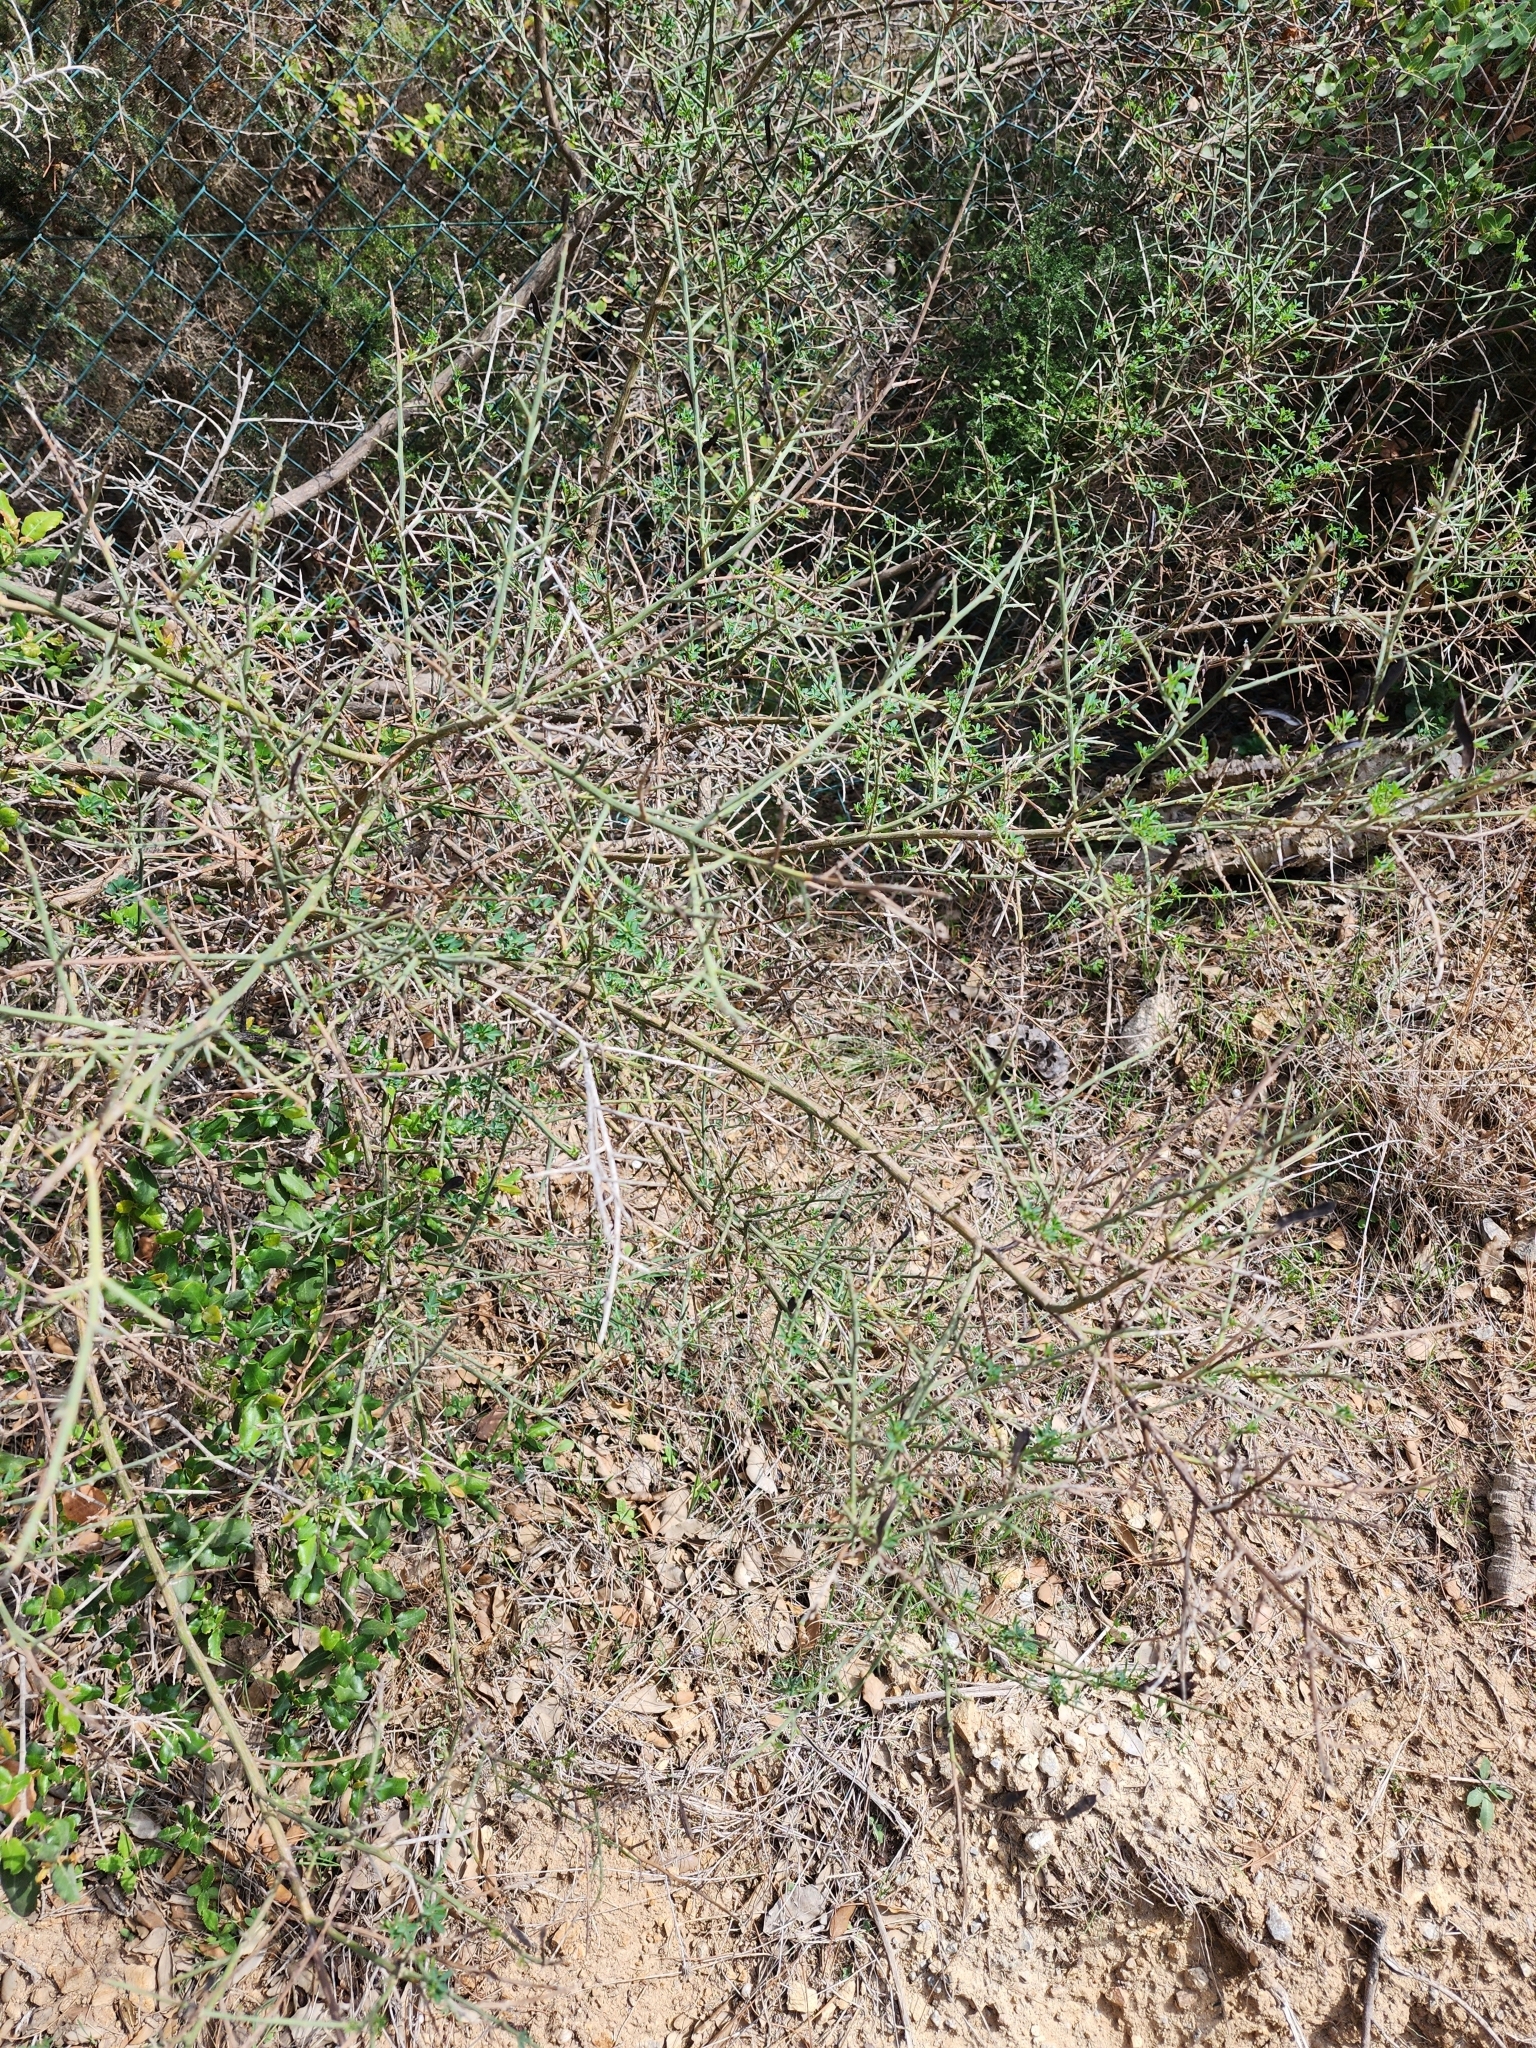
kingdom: Plantae
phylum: Tracheophyta
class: Magnoliopsida
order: Fabales
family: Fabaceae
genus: Calicotome
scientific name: Calicotome spinosa
